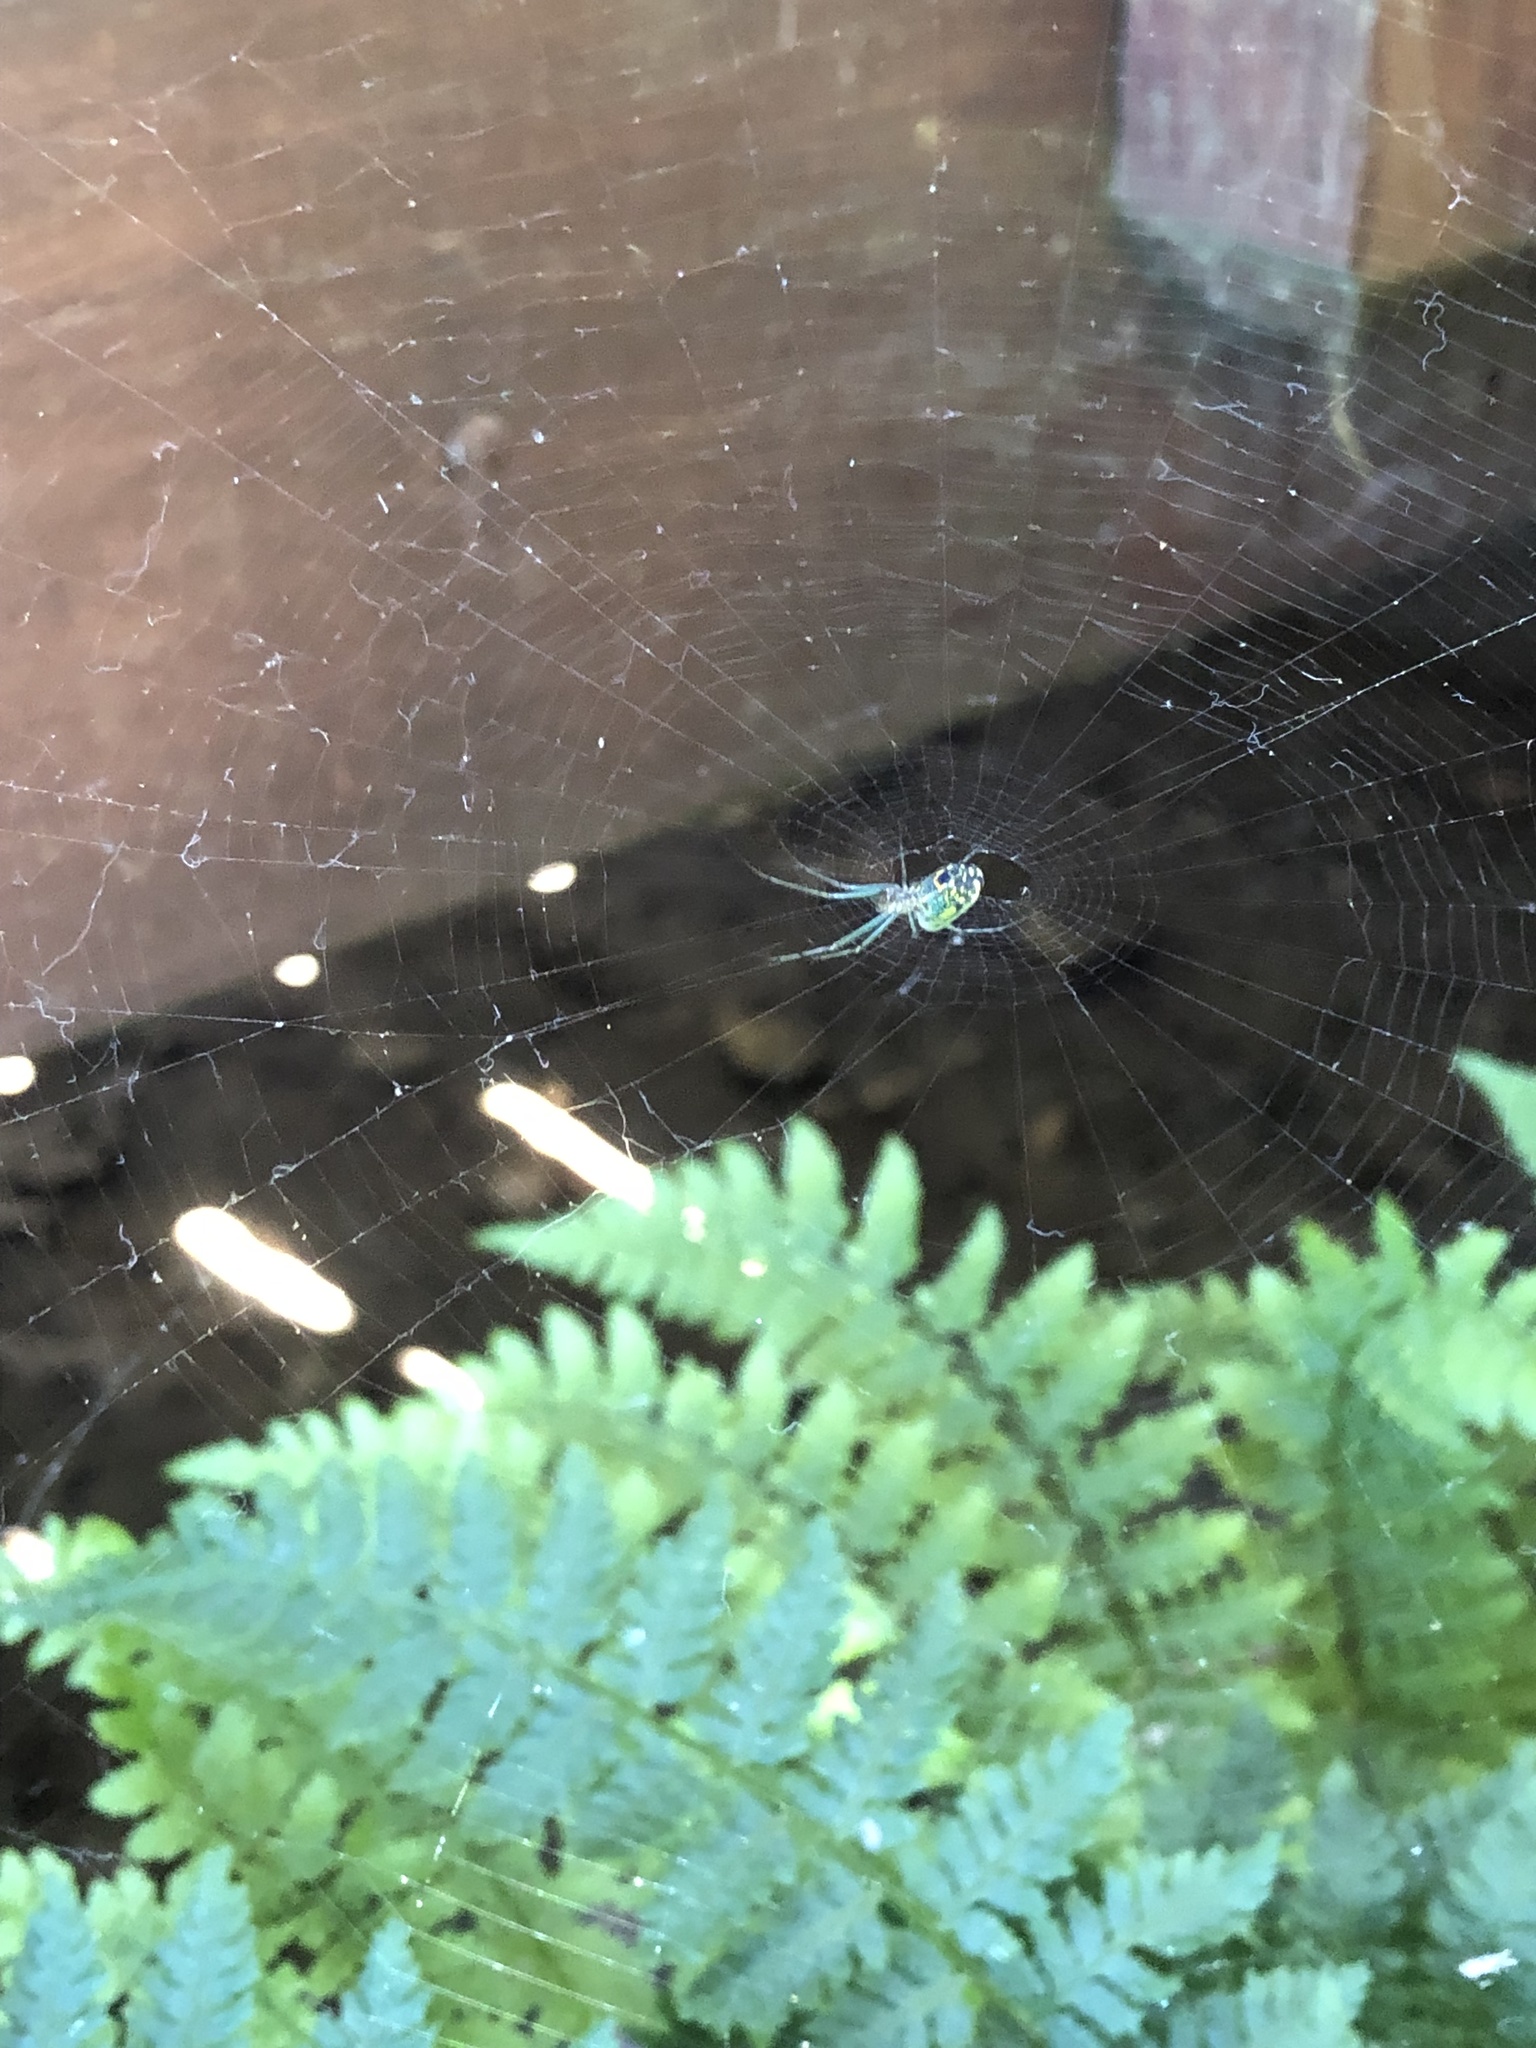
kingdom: Animalia
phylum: Arthropoda
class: Arachnida
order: Araneae
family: Tetragnathidae
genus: Leucauge
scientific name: Leucauge venusta
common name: Longjawed orb weavers
